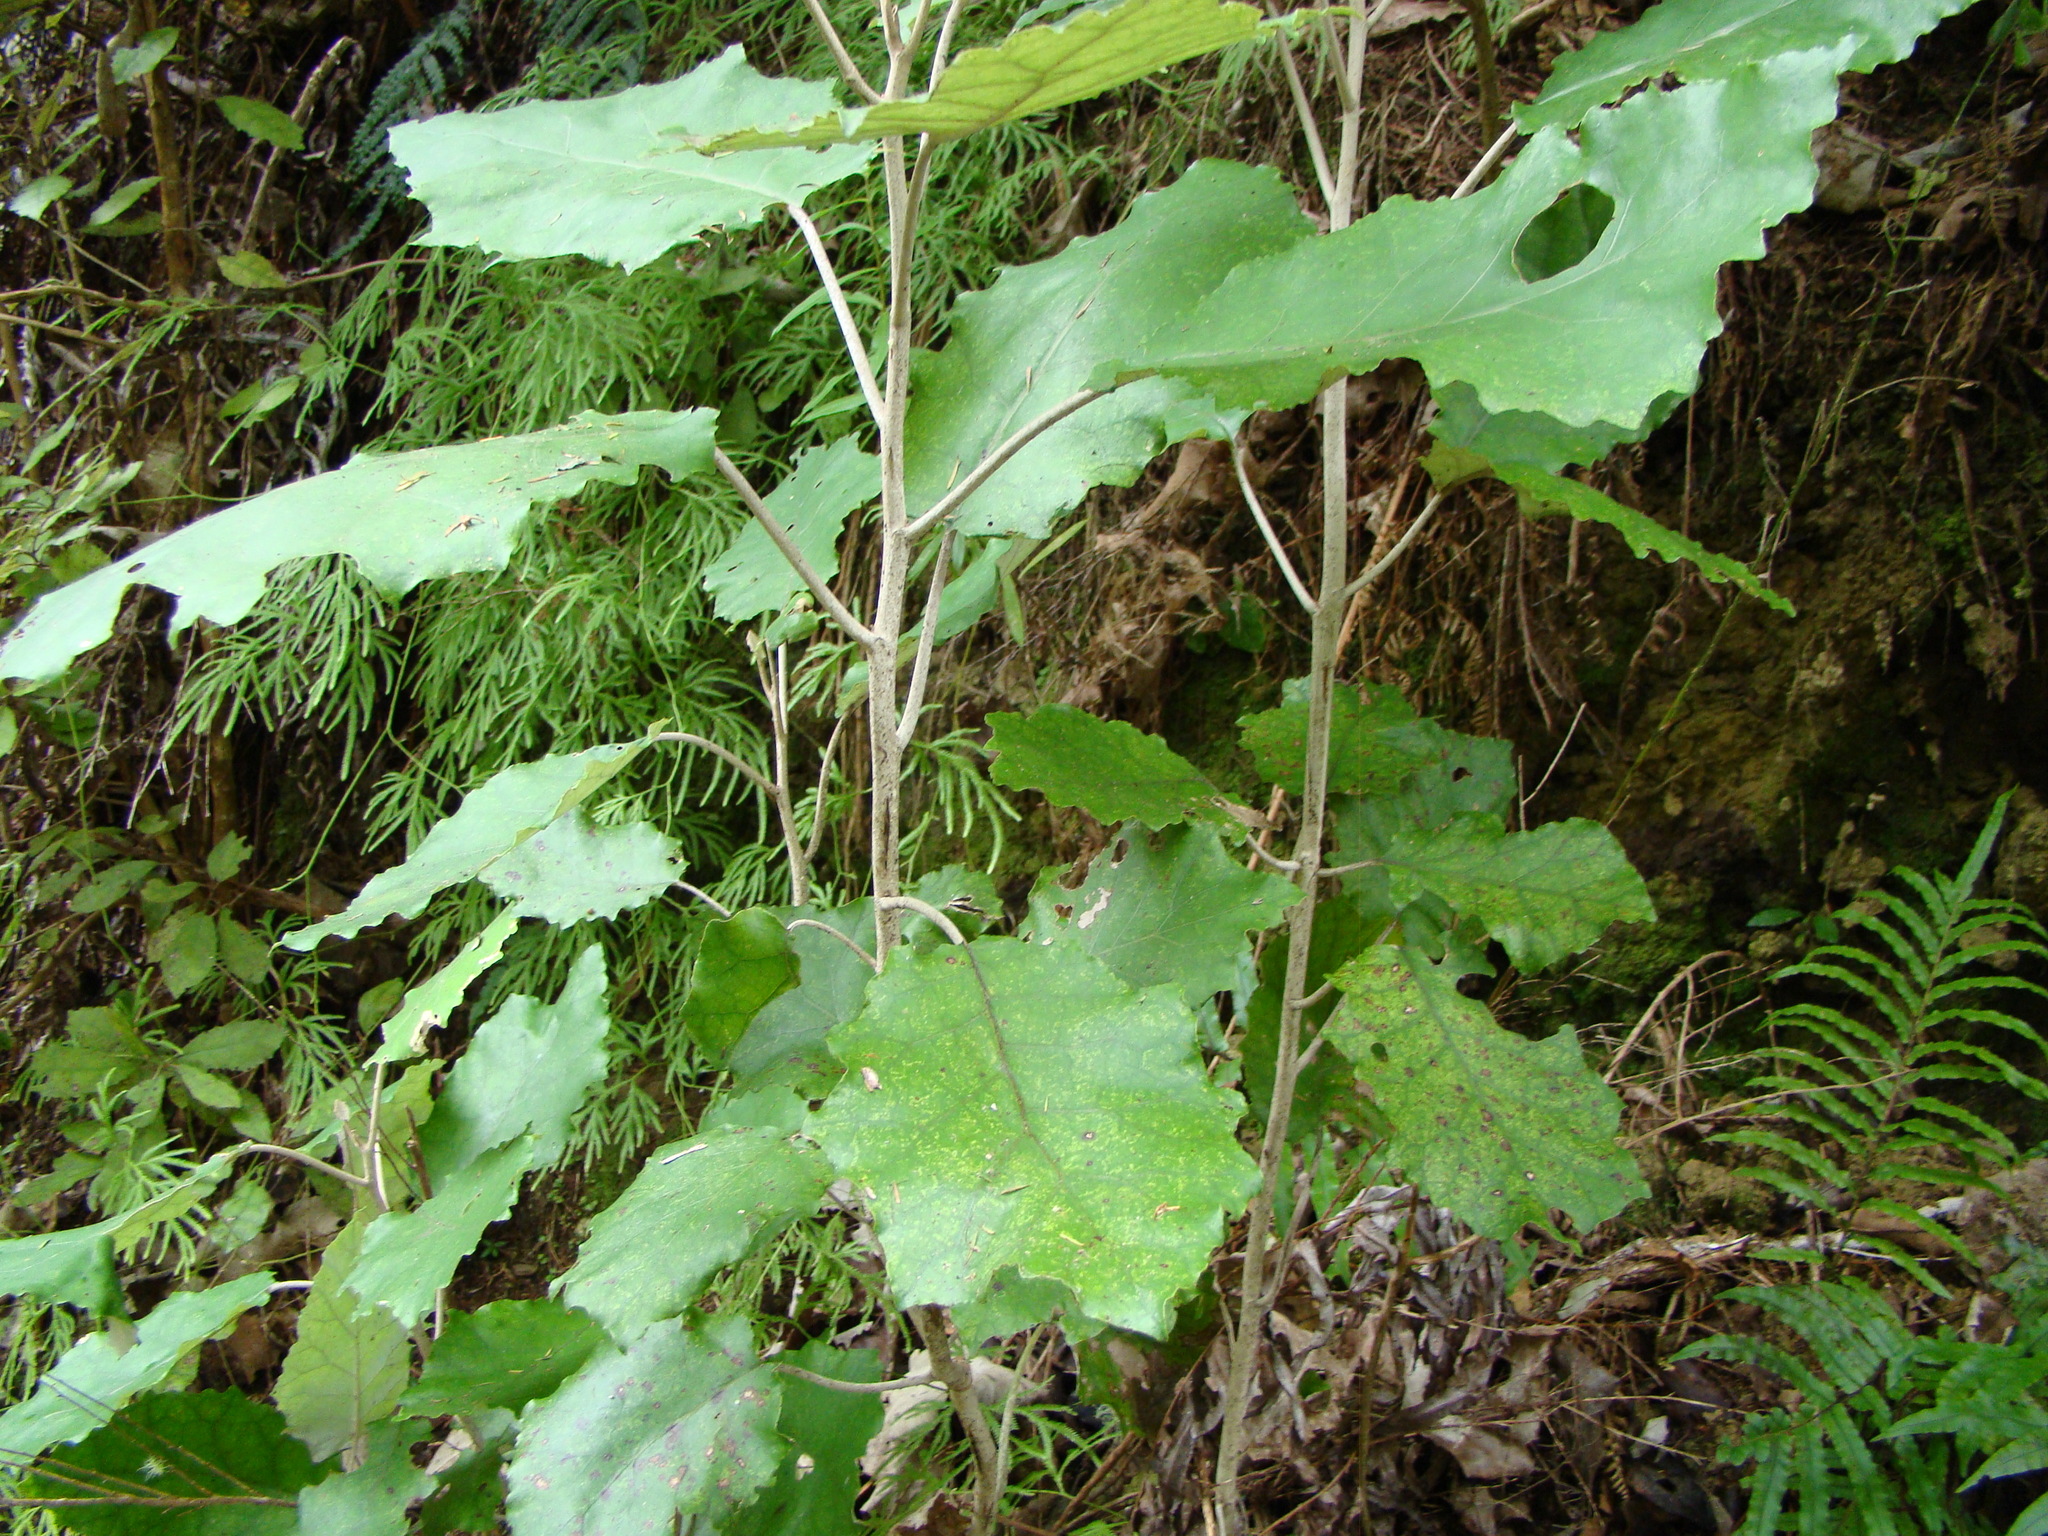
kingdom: Plantae
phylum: Tracheophyta
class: Magnoliopsida
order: Asterales
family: Asteraceae
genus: Brachyglottis
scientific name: Brachyglottis repanda
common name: Hedge ragwort
